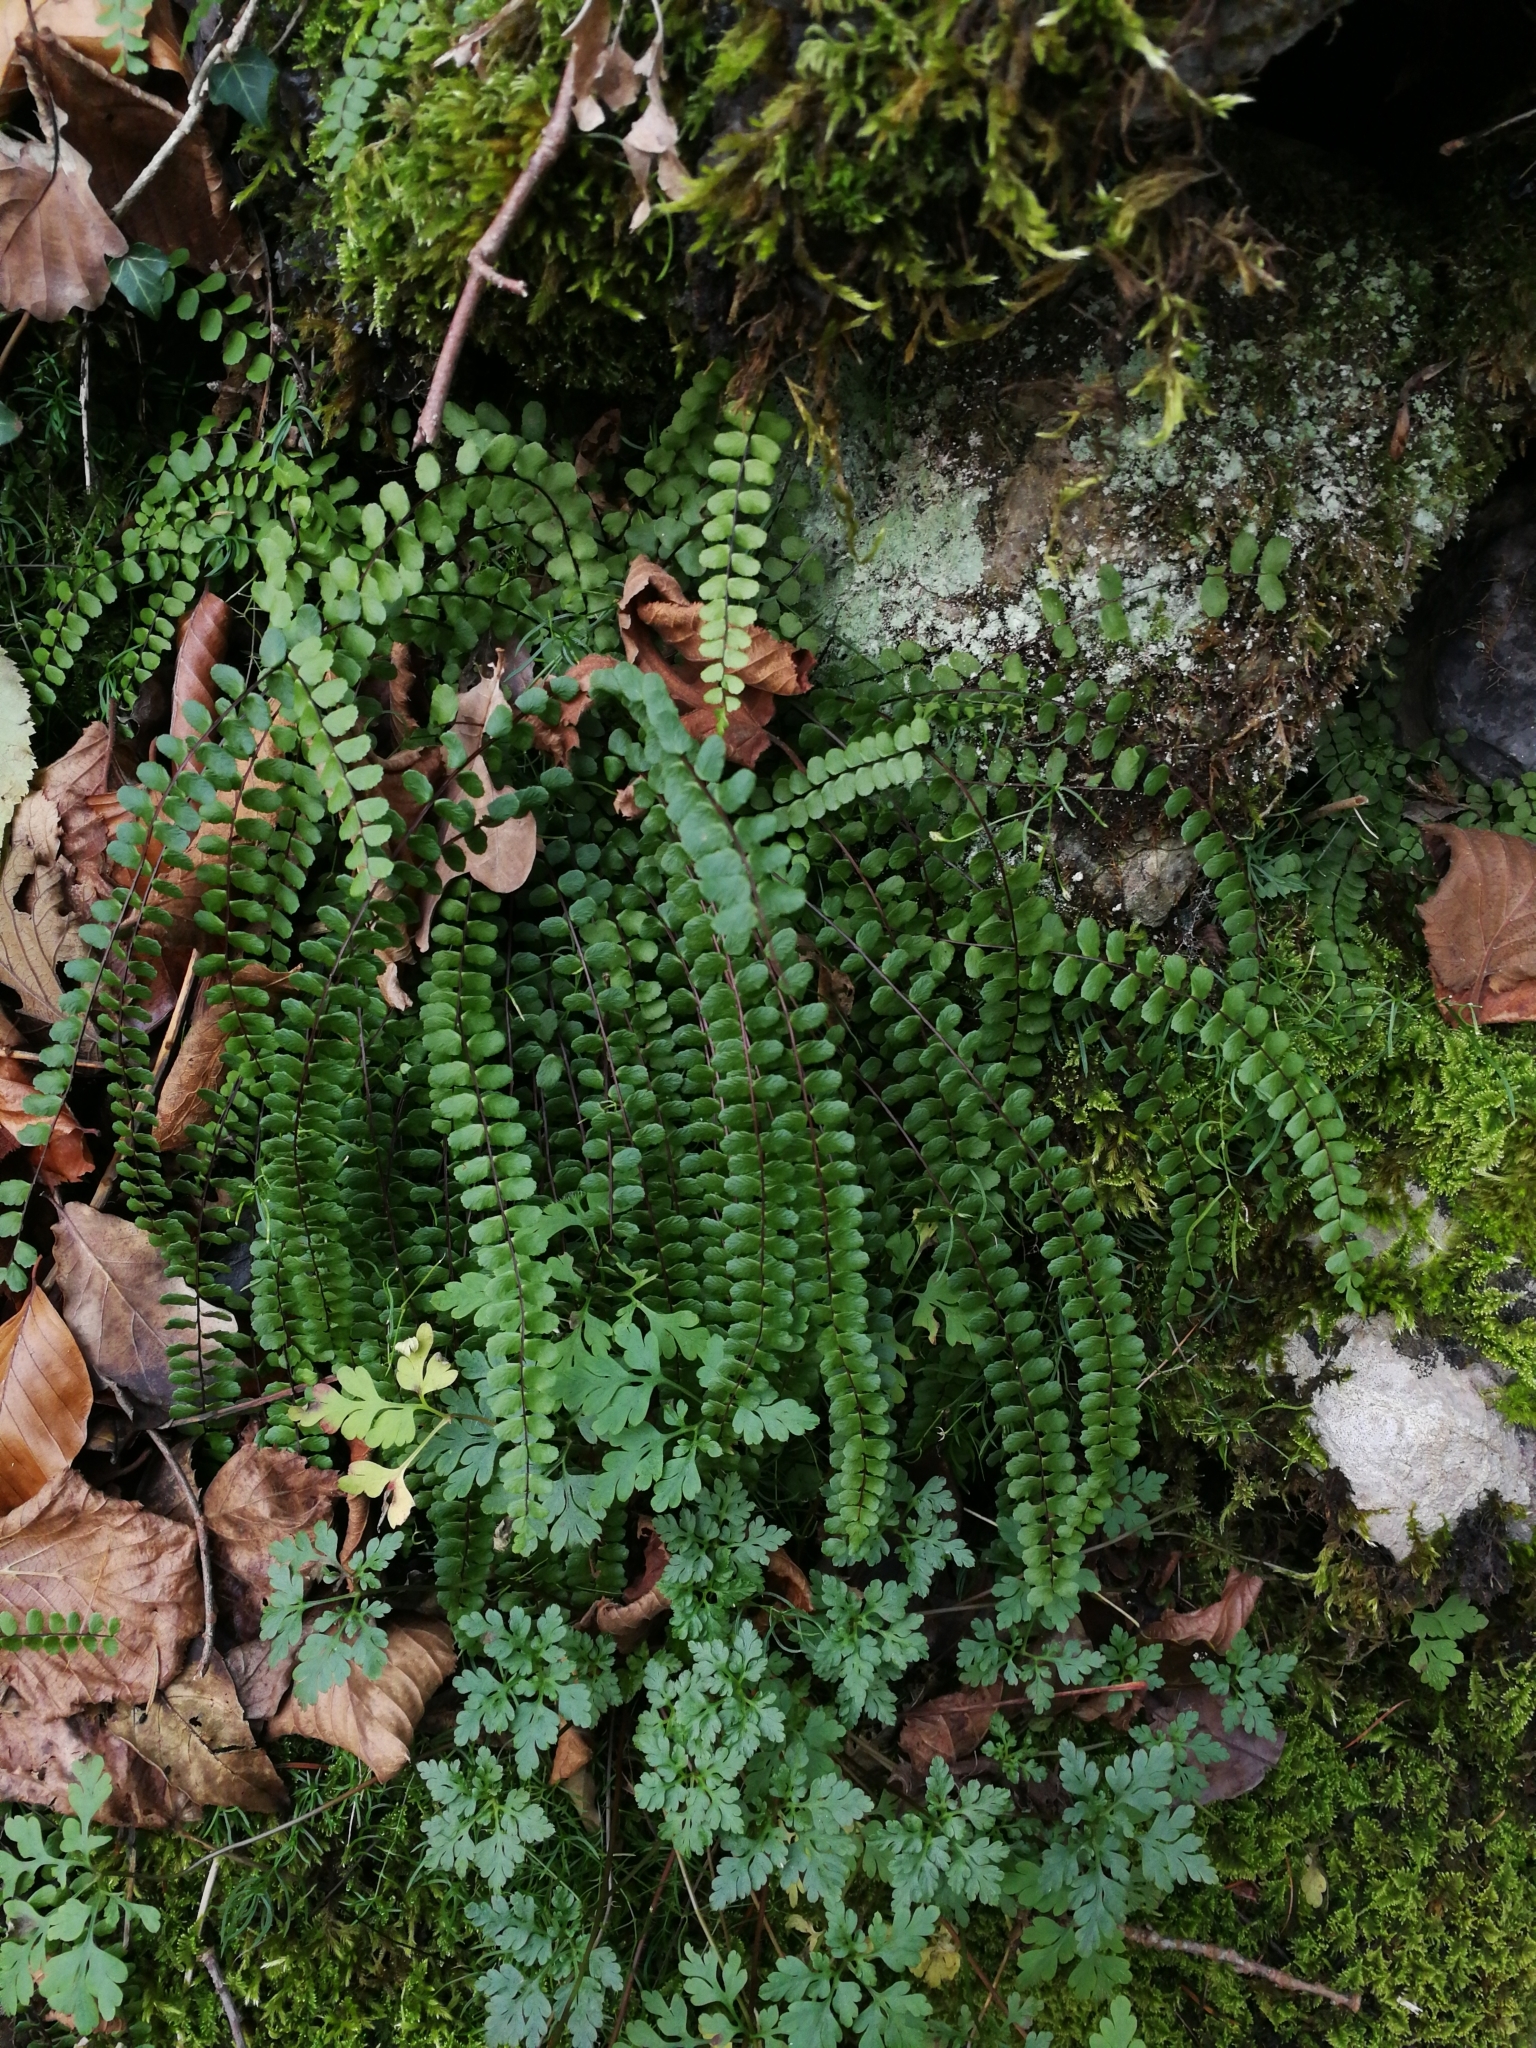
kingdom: Plantae
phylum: Tracheophyta
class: Polypodiopsida
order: Polypodiales
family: Aspleniaceae
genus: Asplenium
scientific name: Asplenium trichomanes
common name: Maidenhair spleenwort
